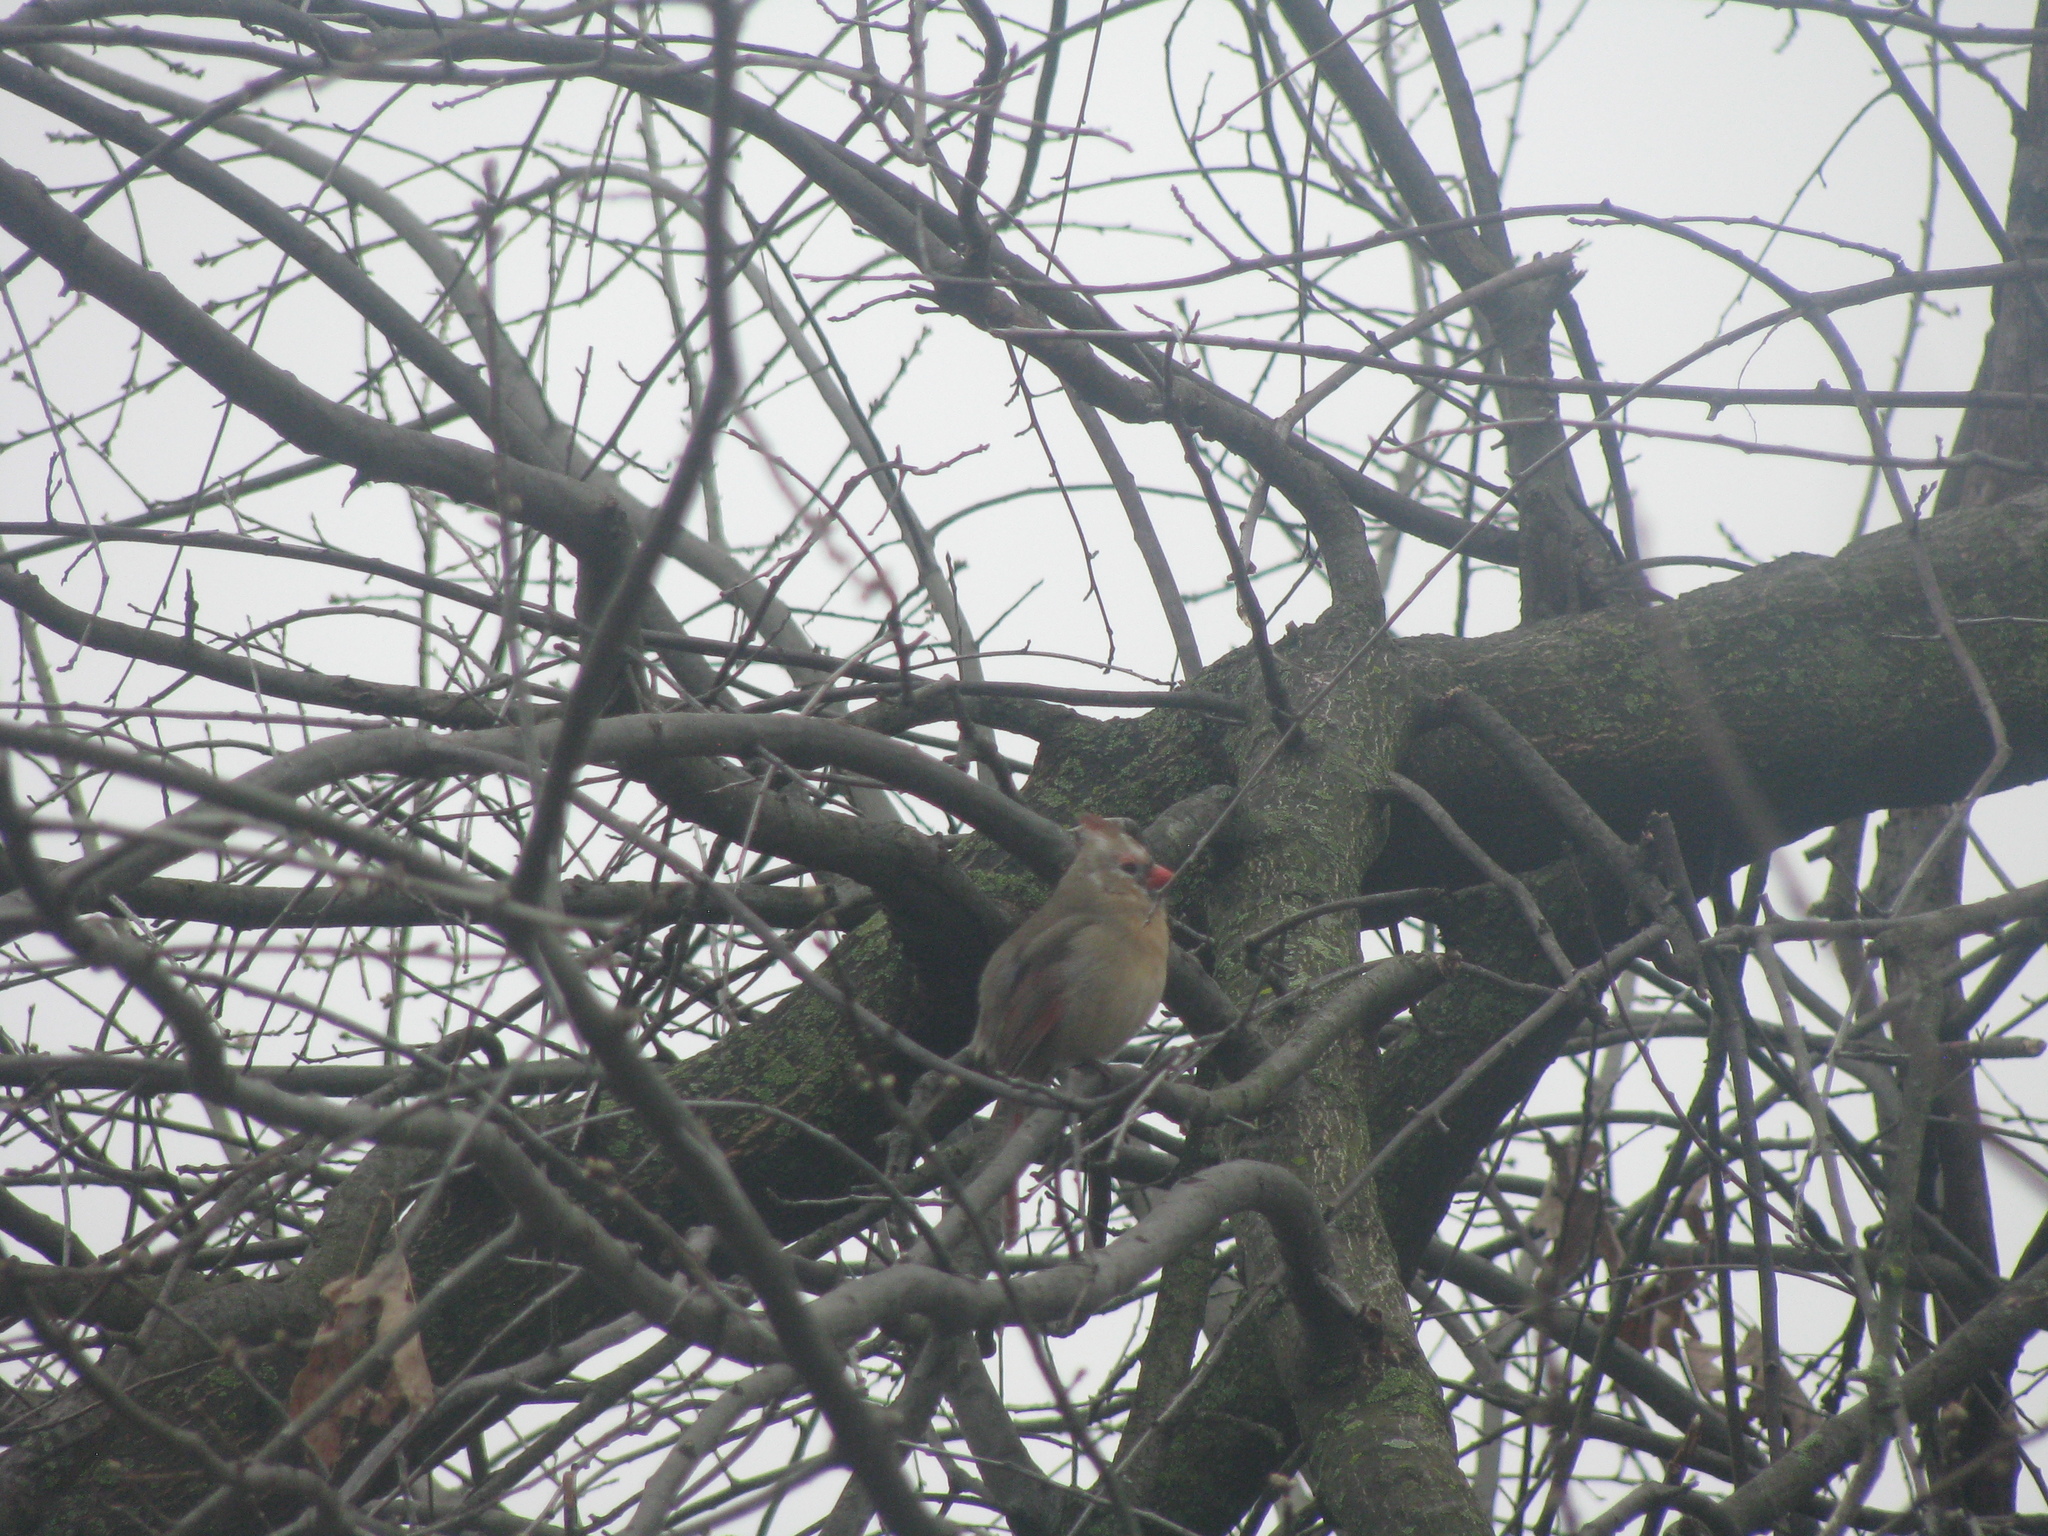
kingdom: Animalia
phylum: Chordata
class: Aves
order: Passeriformes
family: Cardinalidae
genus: Cardinalis
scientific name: Cardinalis cardinalis
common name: Northern cardinal
